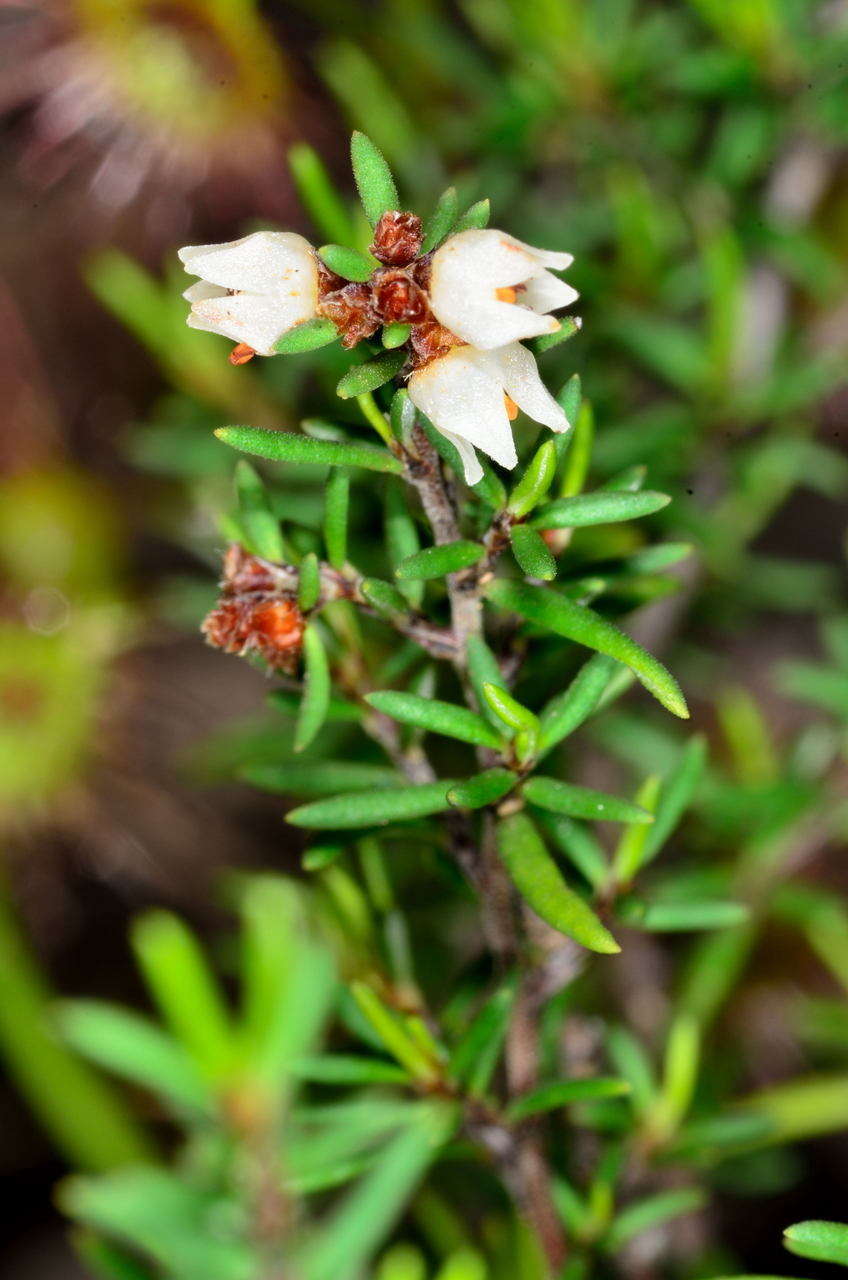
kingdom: Plantae
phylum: Tracheophyta
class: Magnoliopsida
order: Rosales
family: Rhamnaceae
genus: Cryptandra
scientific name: Cryptandra tomentosa
